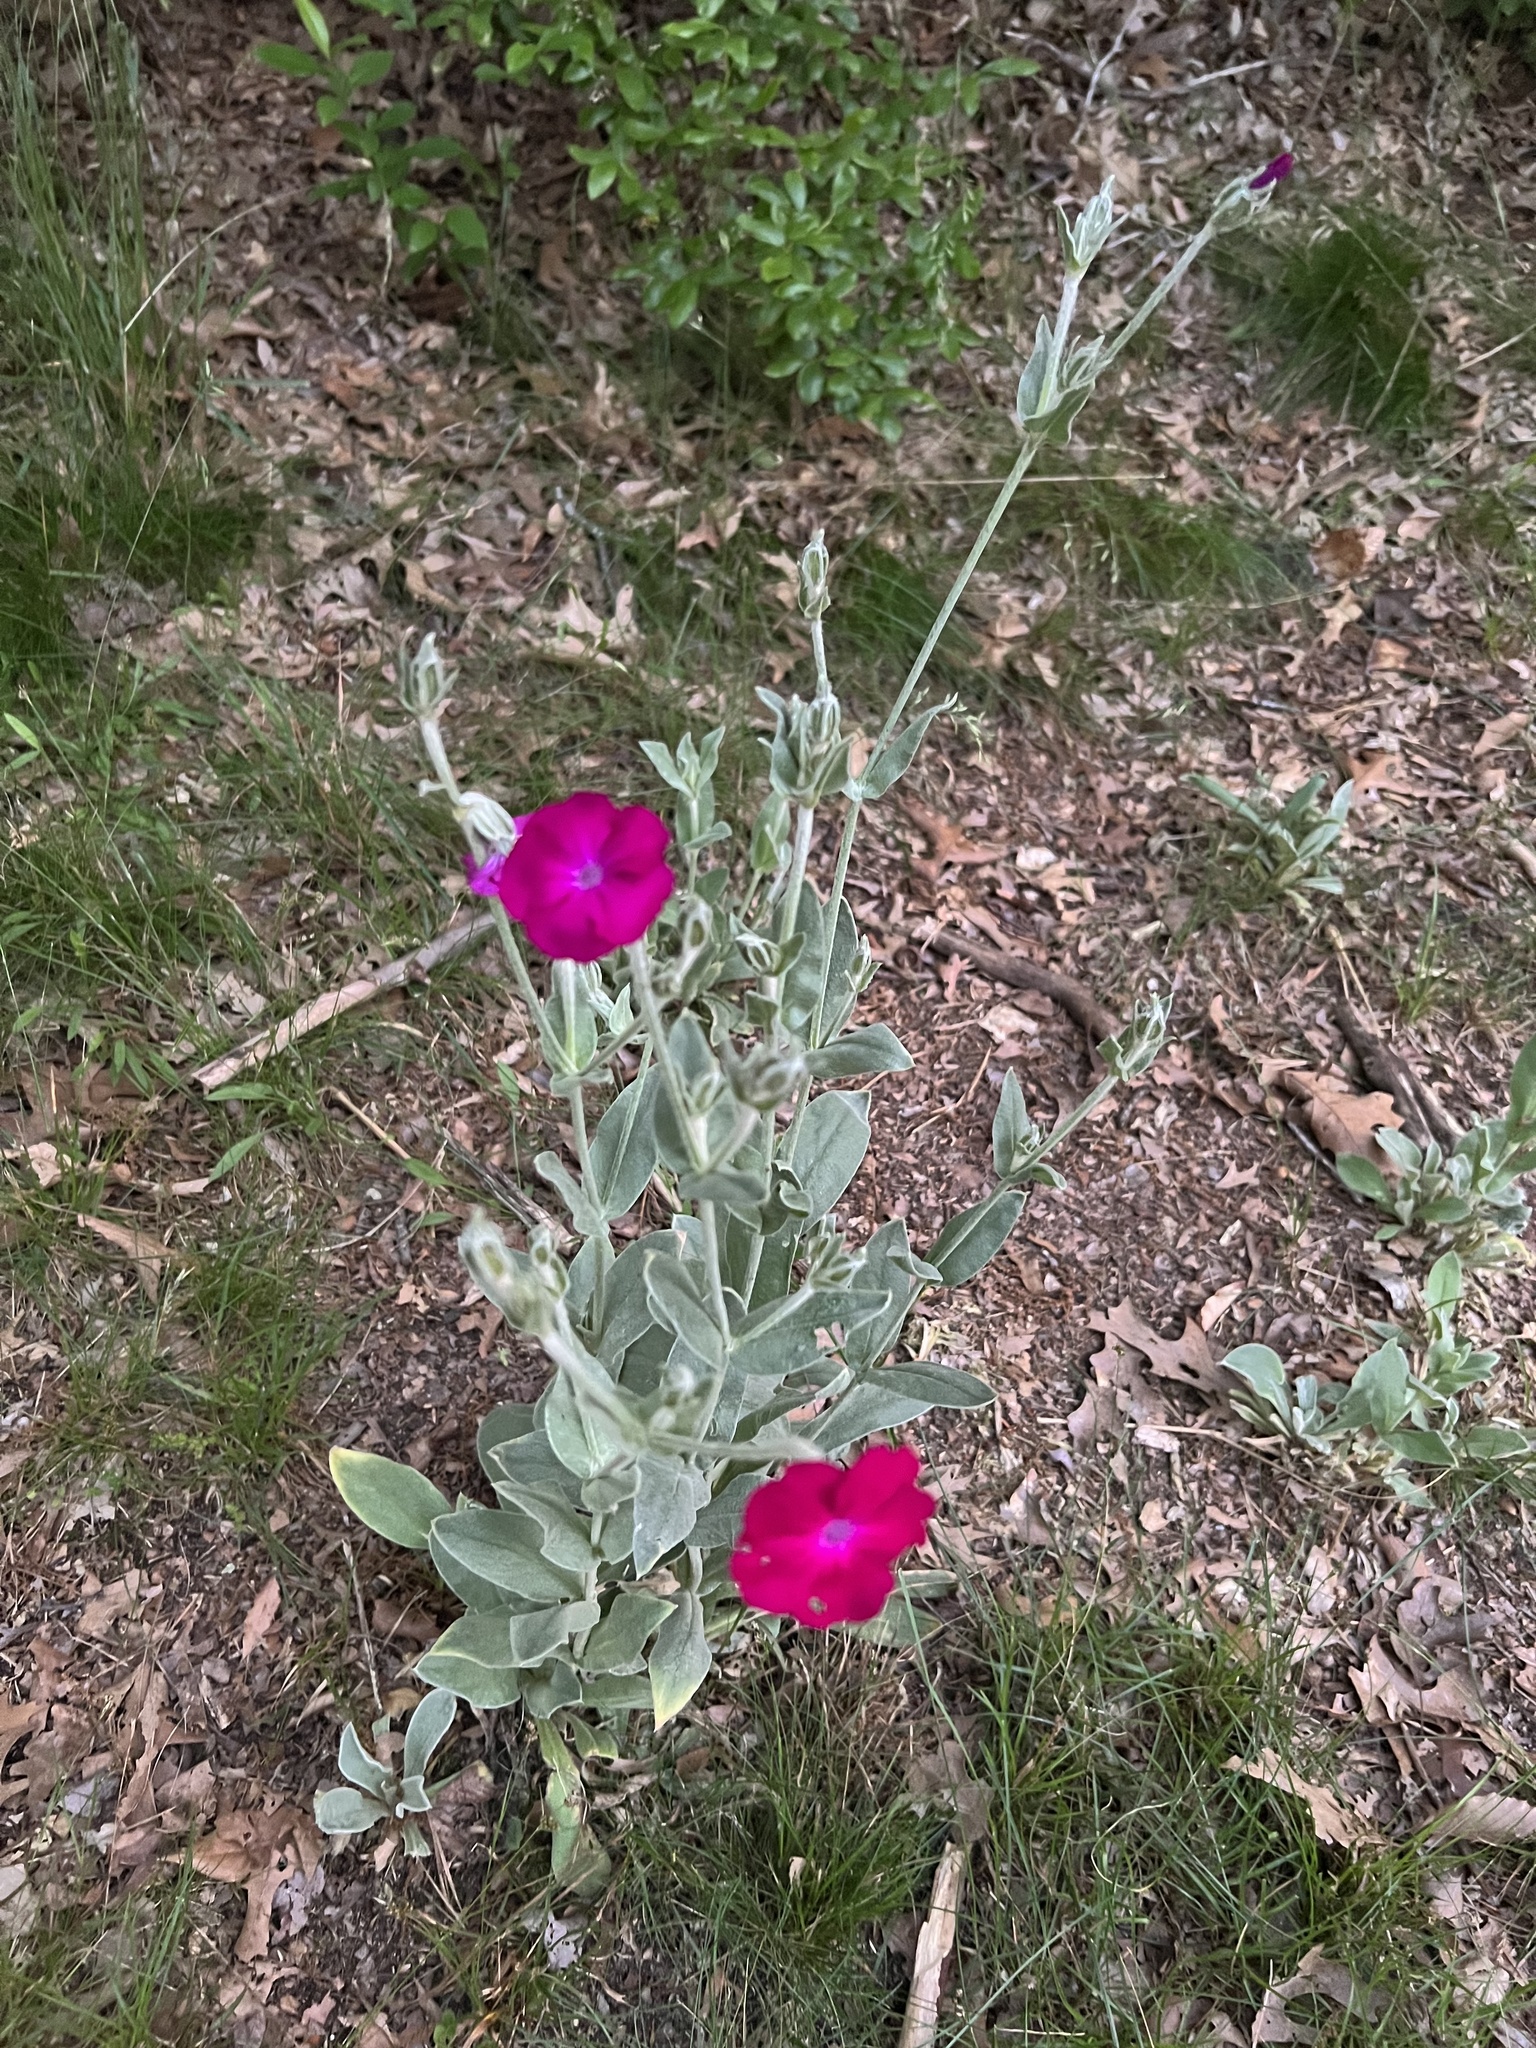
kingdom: Plantae
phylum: Tracheophyta
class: Magnoliopsida
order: Caryophyllales
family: Caryophyllaceae
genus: Silene
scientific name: Silene coronaria
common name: Rose campion
